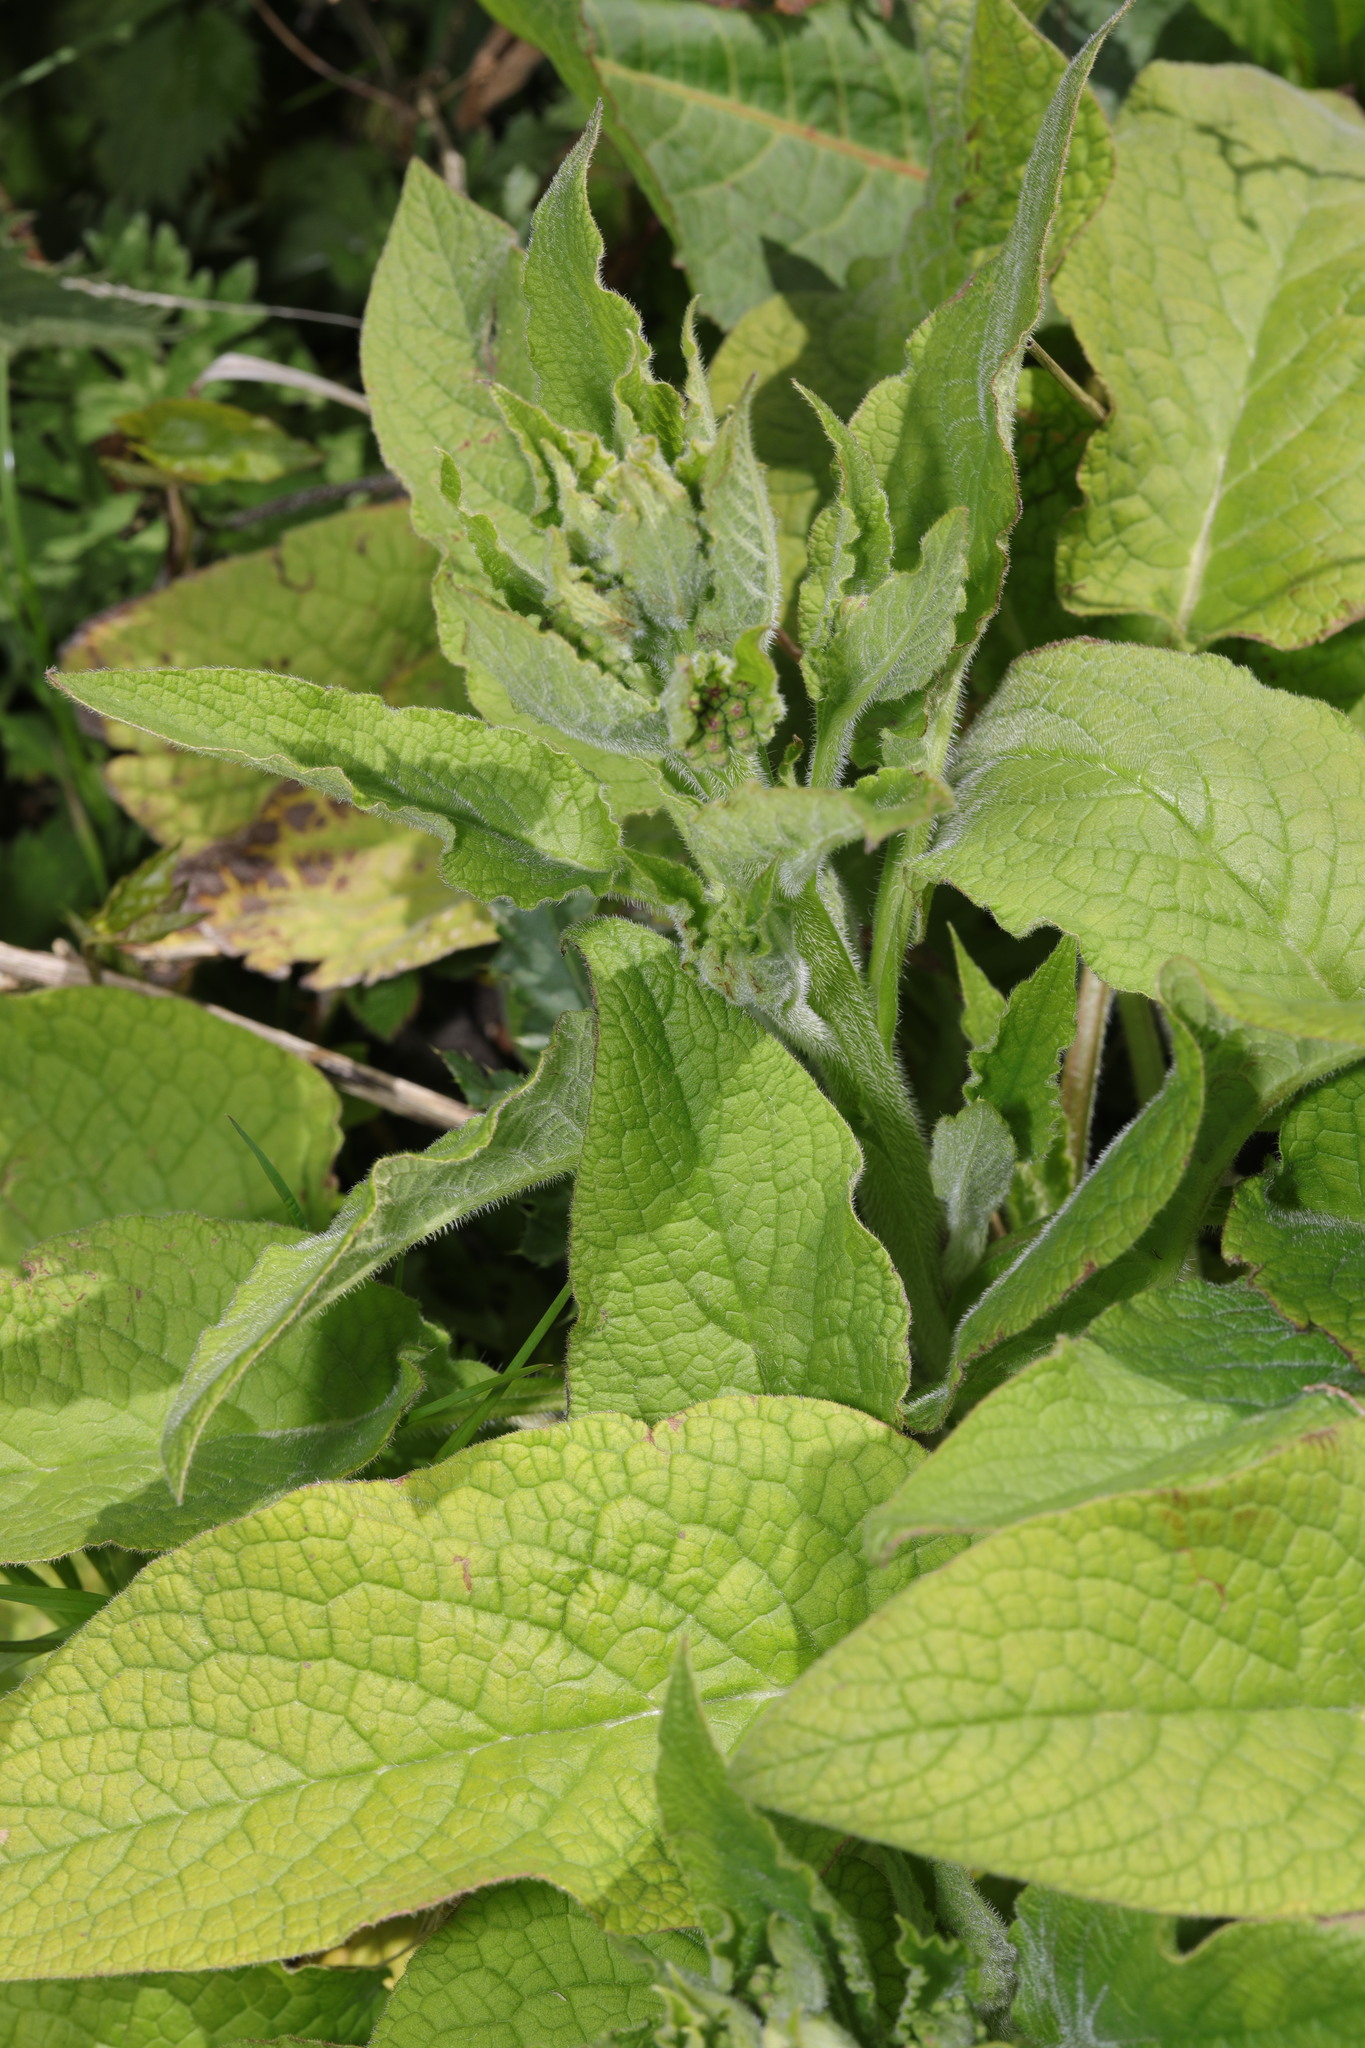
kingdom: Plantae
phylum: Tracheophyta
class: Magnoliopsida
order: Boraginales
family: Boraginaceae
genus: Symphytum
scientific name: Symphytum uplandicum
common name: Russian comfrey
